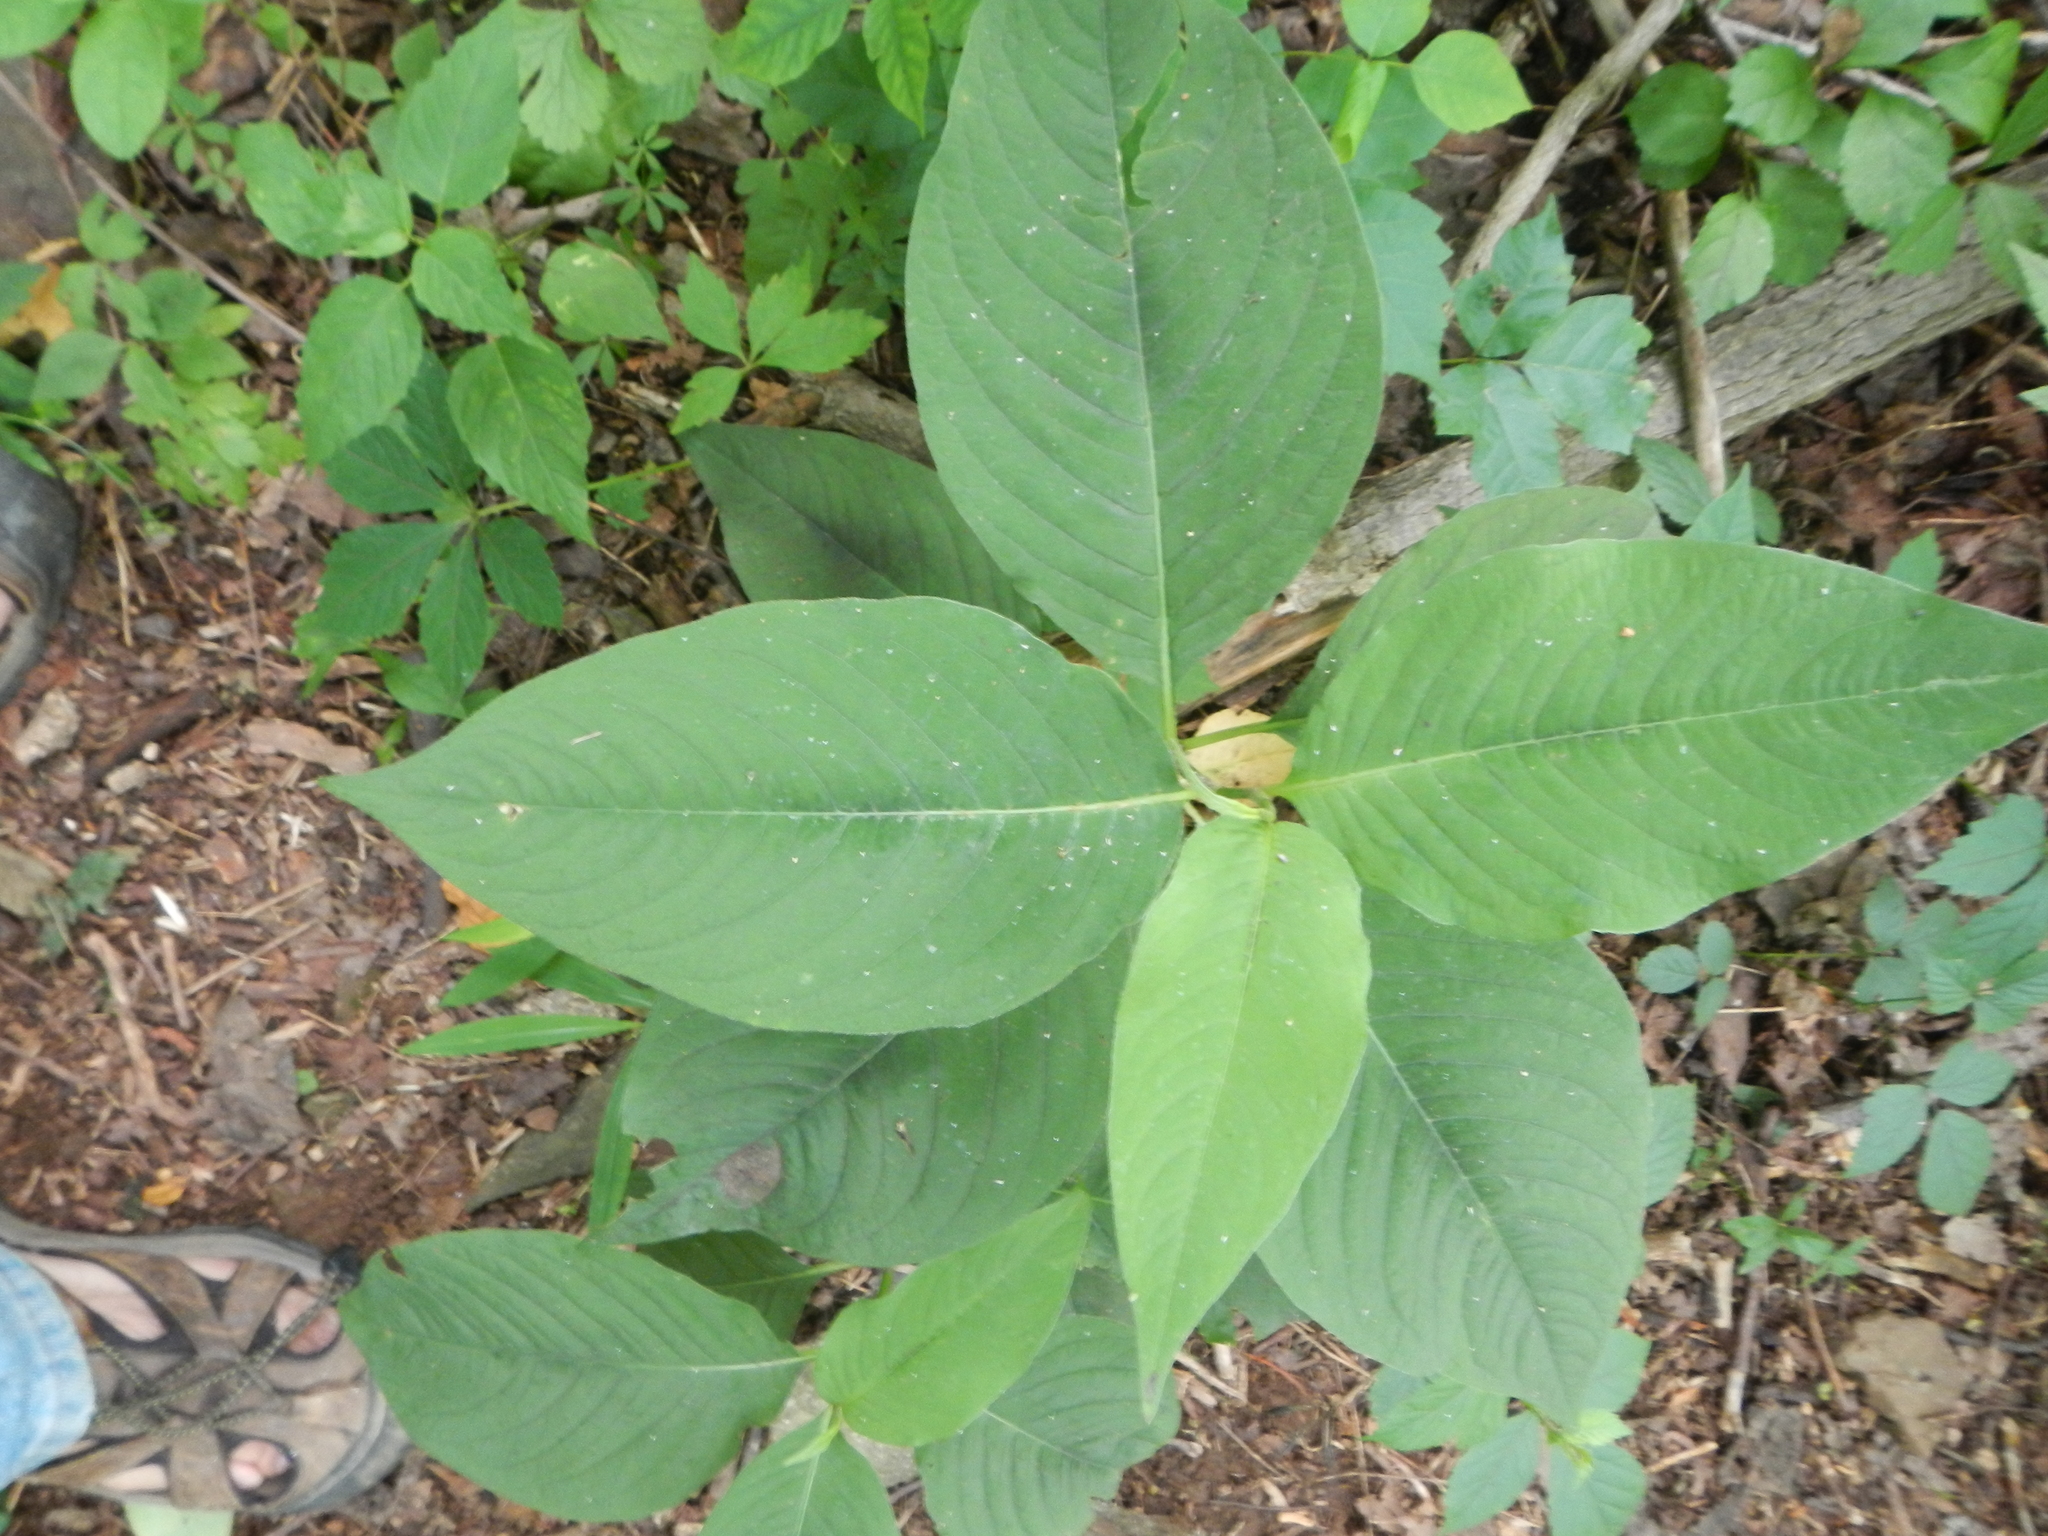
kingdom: Plantae
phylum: Tracheophyta
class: Magnoliopsida
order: Caryophyllales
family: Polygonaceae
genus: Persicaria
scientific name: Persicaria virginiana
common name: Jumpseed
